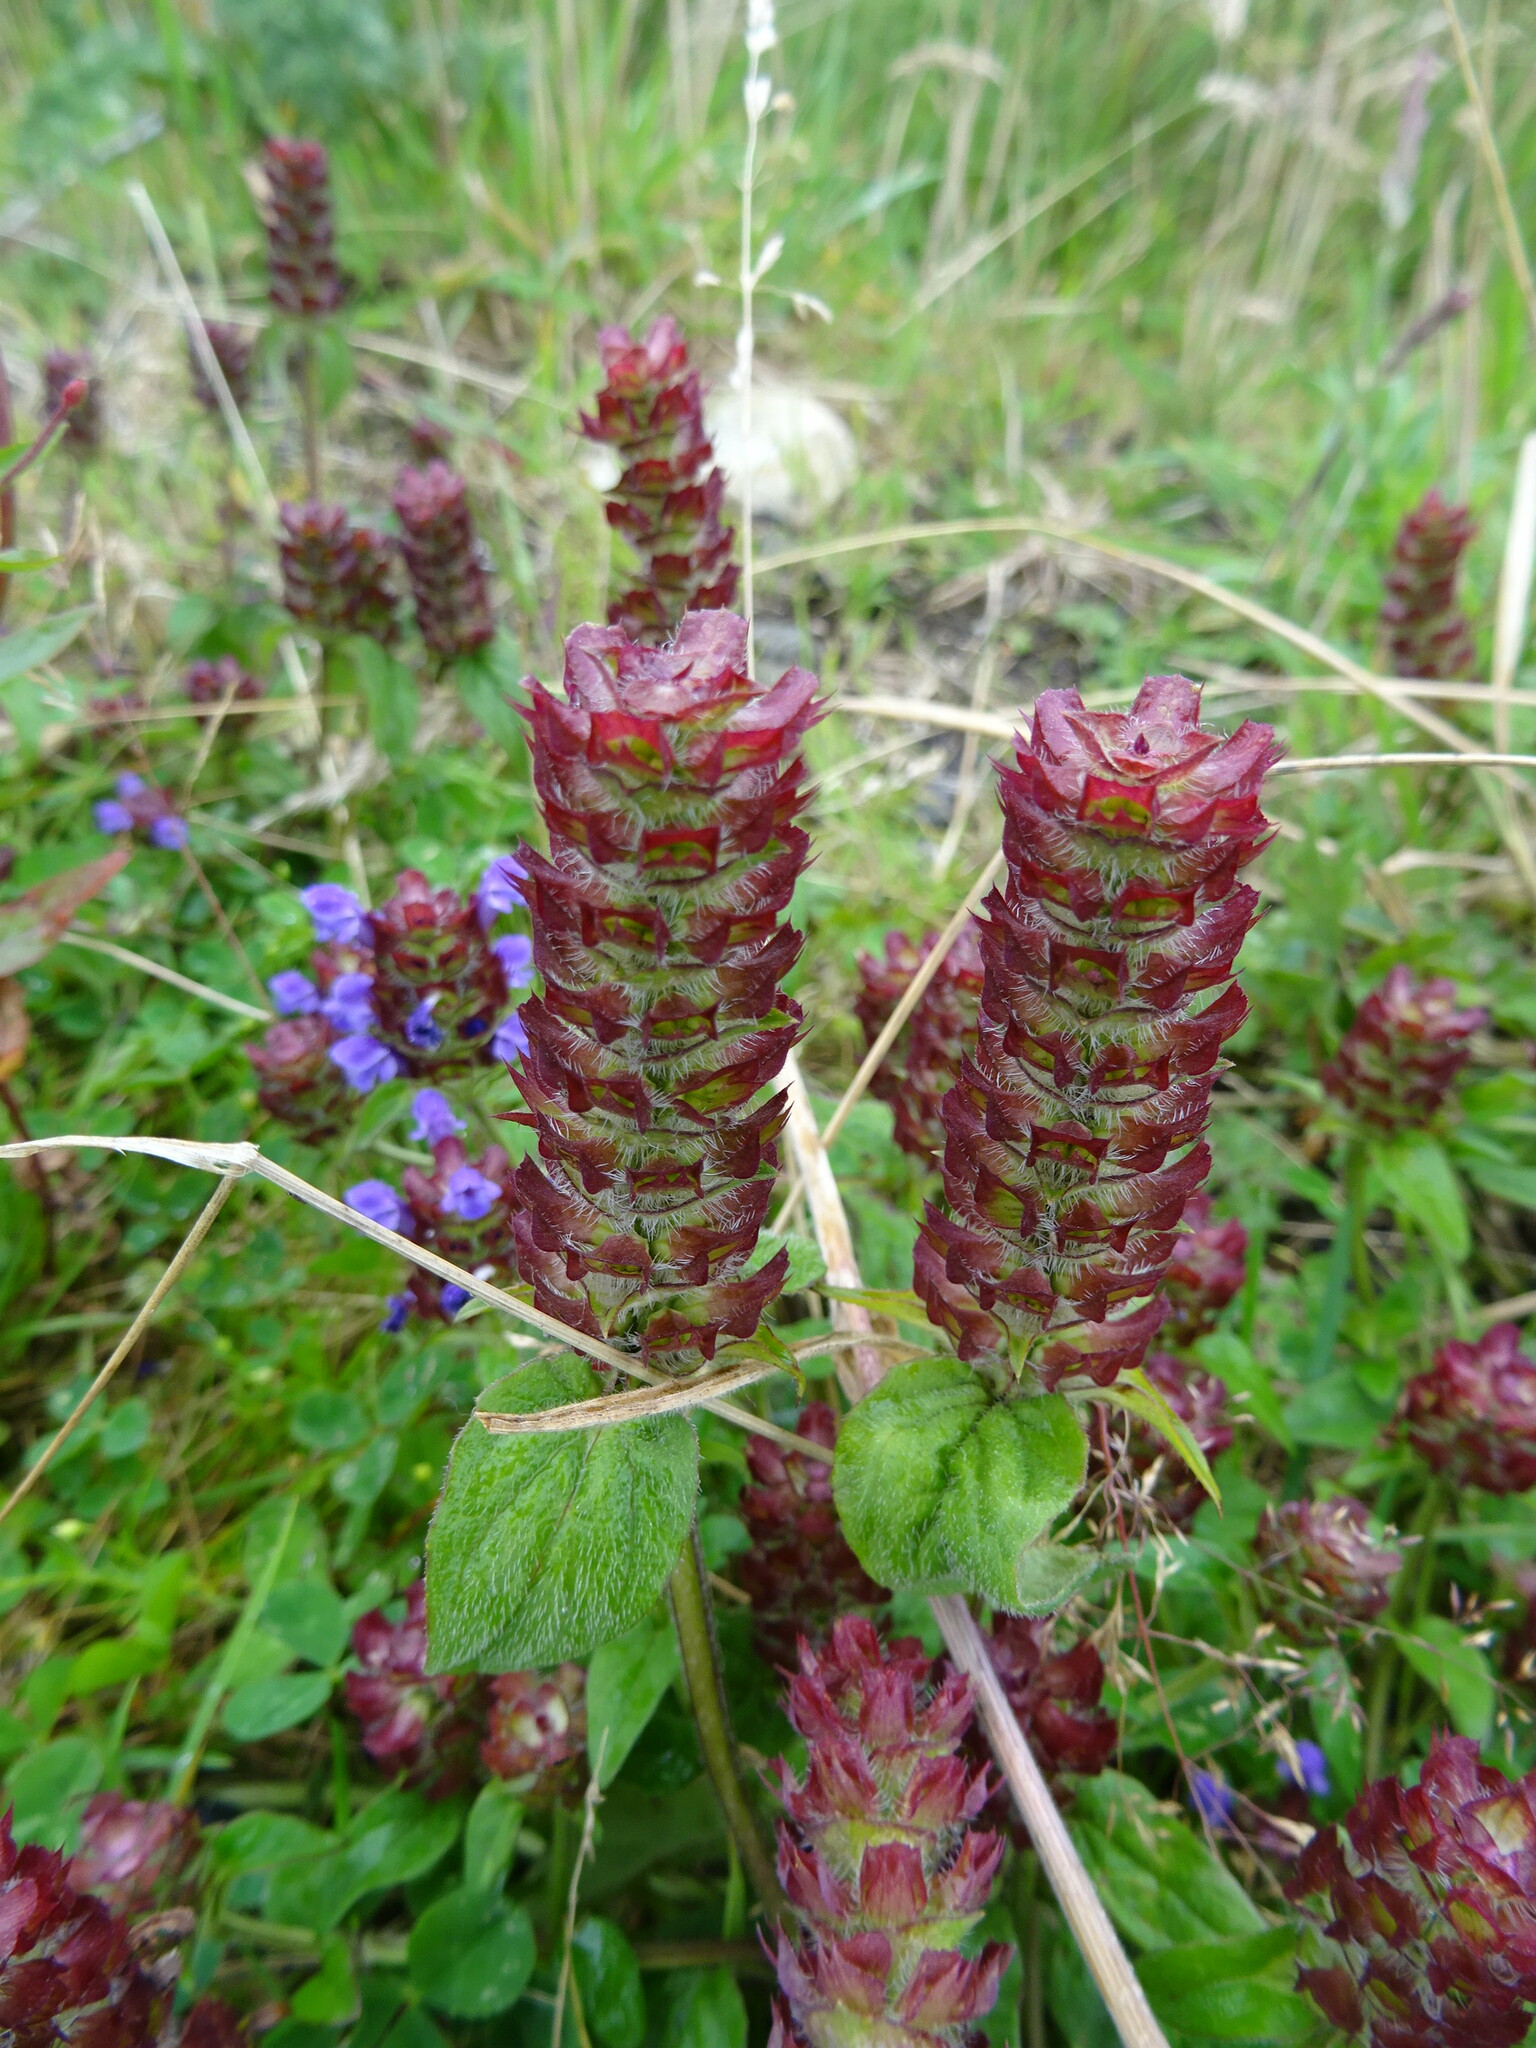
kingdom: Plantae
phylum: Tracheophyta
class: Magnoliopsida
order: Lamiales
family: Lamiaceae
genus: Prunella
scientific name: Prunella vulgaris
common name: Heal-all
